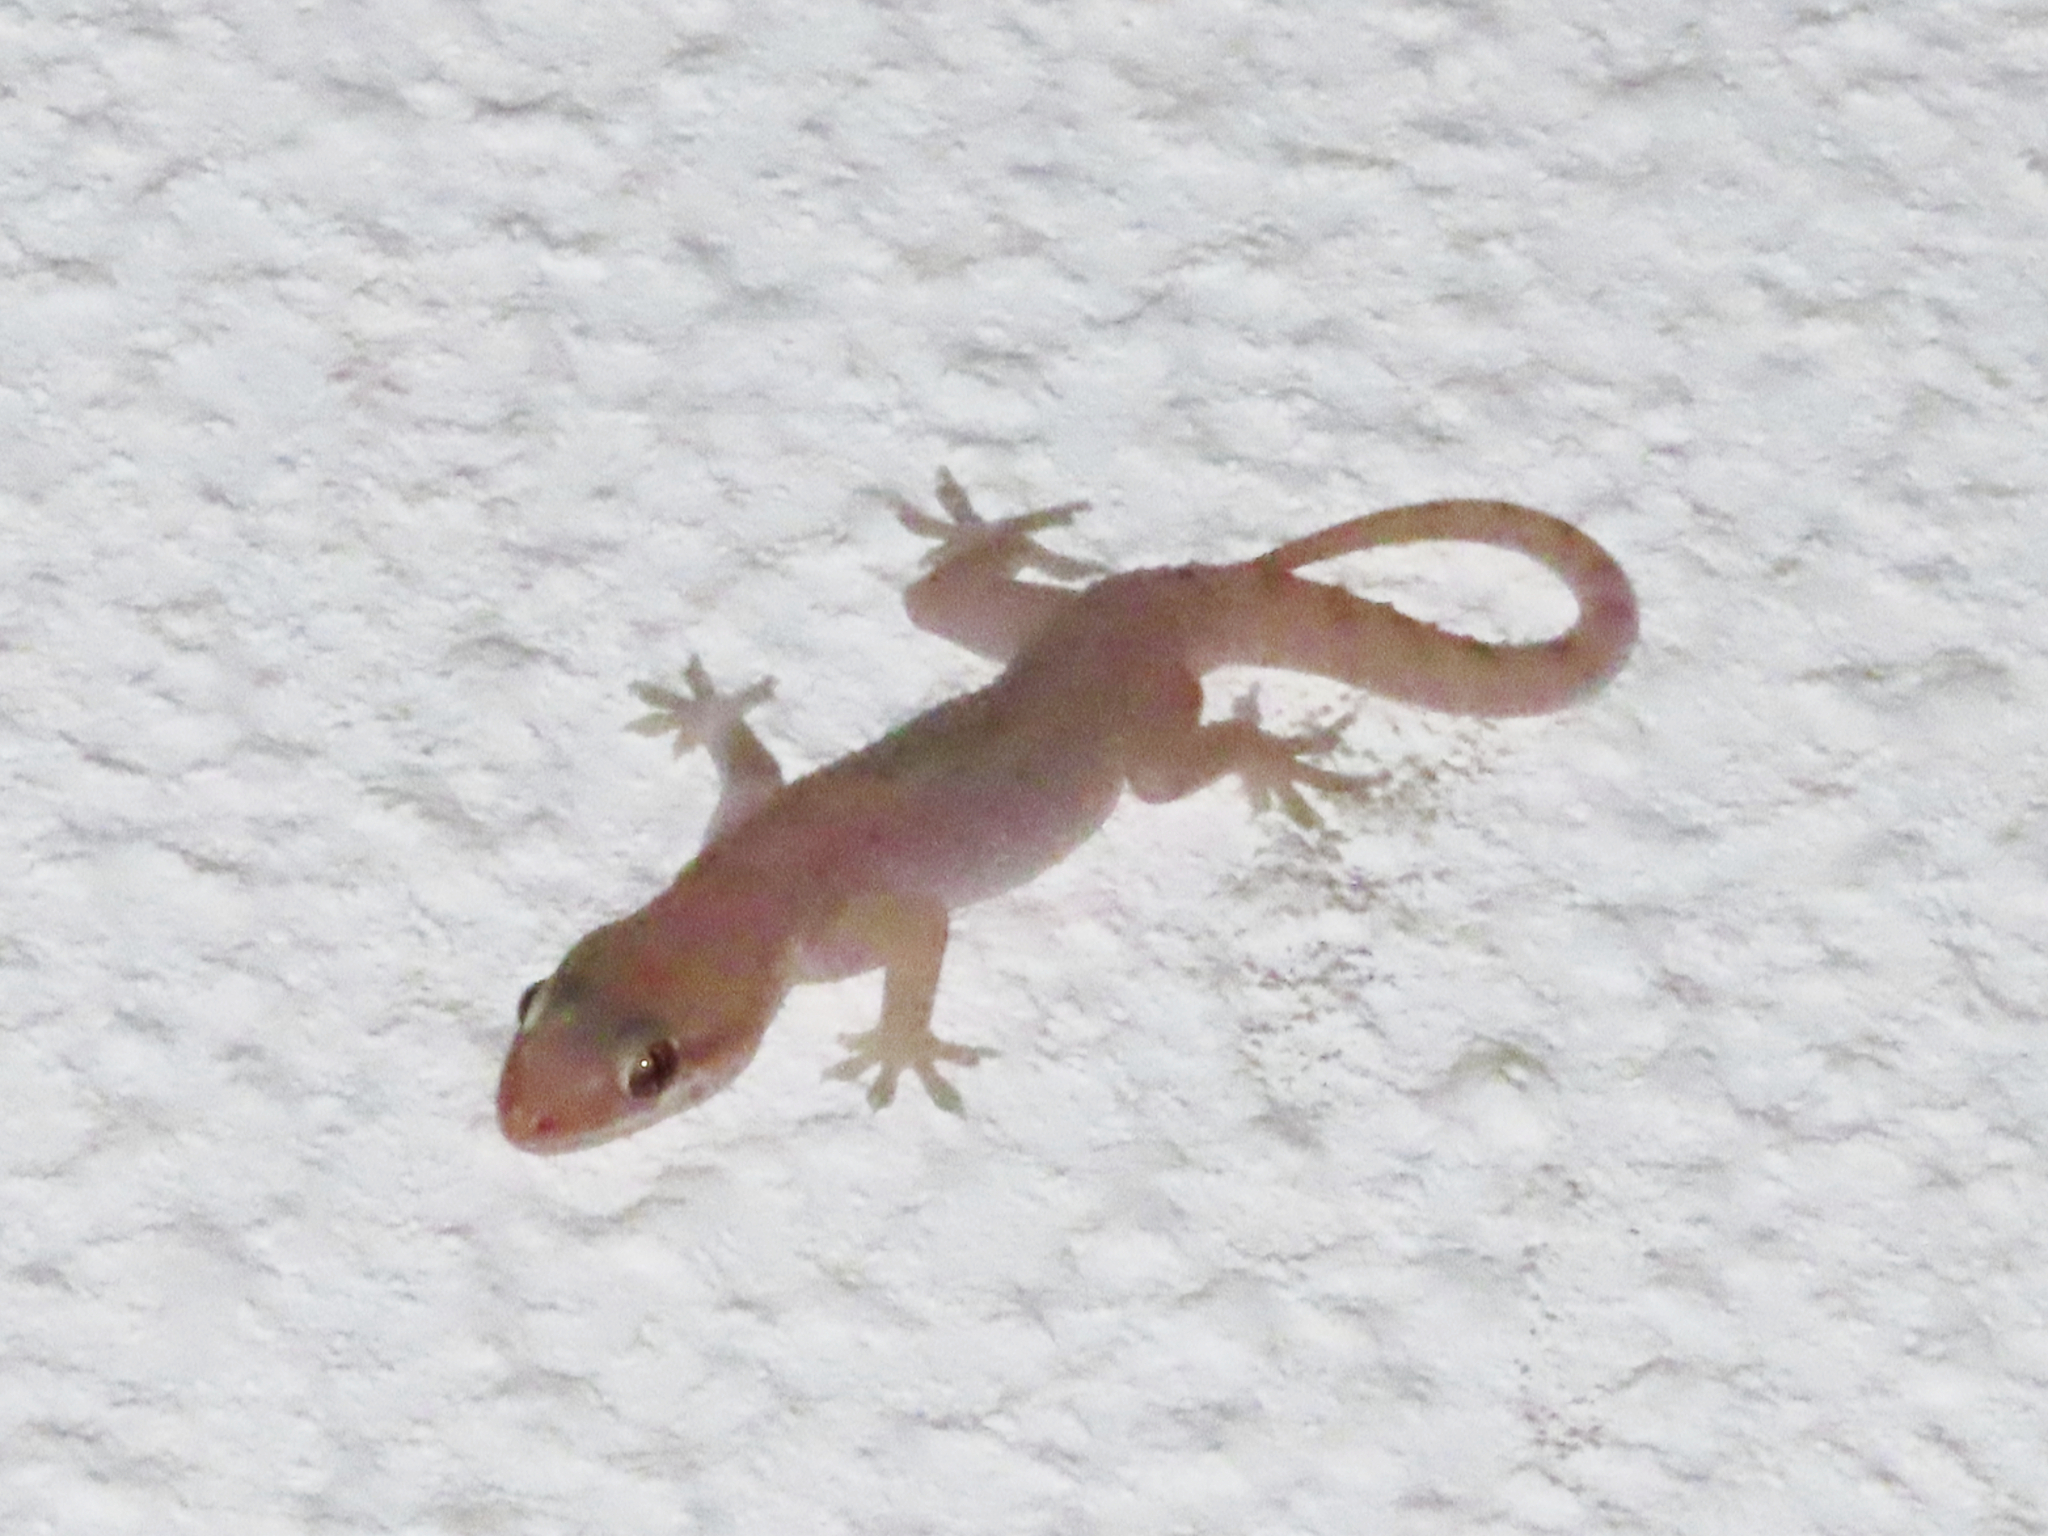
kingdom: Animalia
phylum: Chordata
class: Squamata
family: Gekkonidae
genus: Hemidactylus
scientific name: Hemidactylus robustus
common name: Heyden’s gecko
